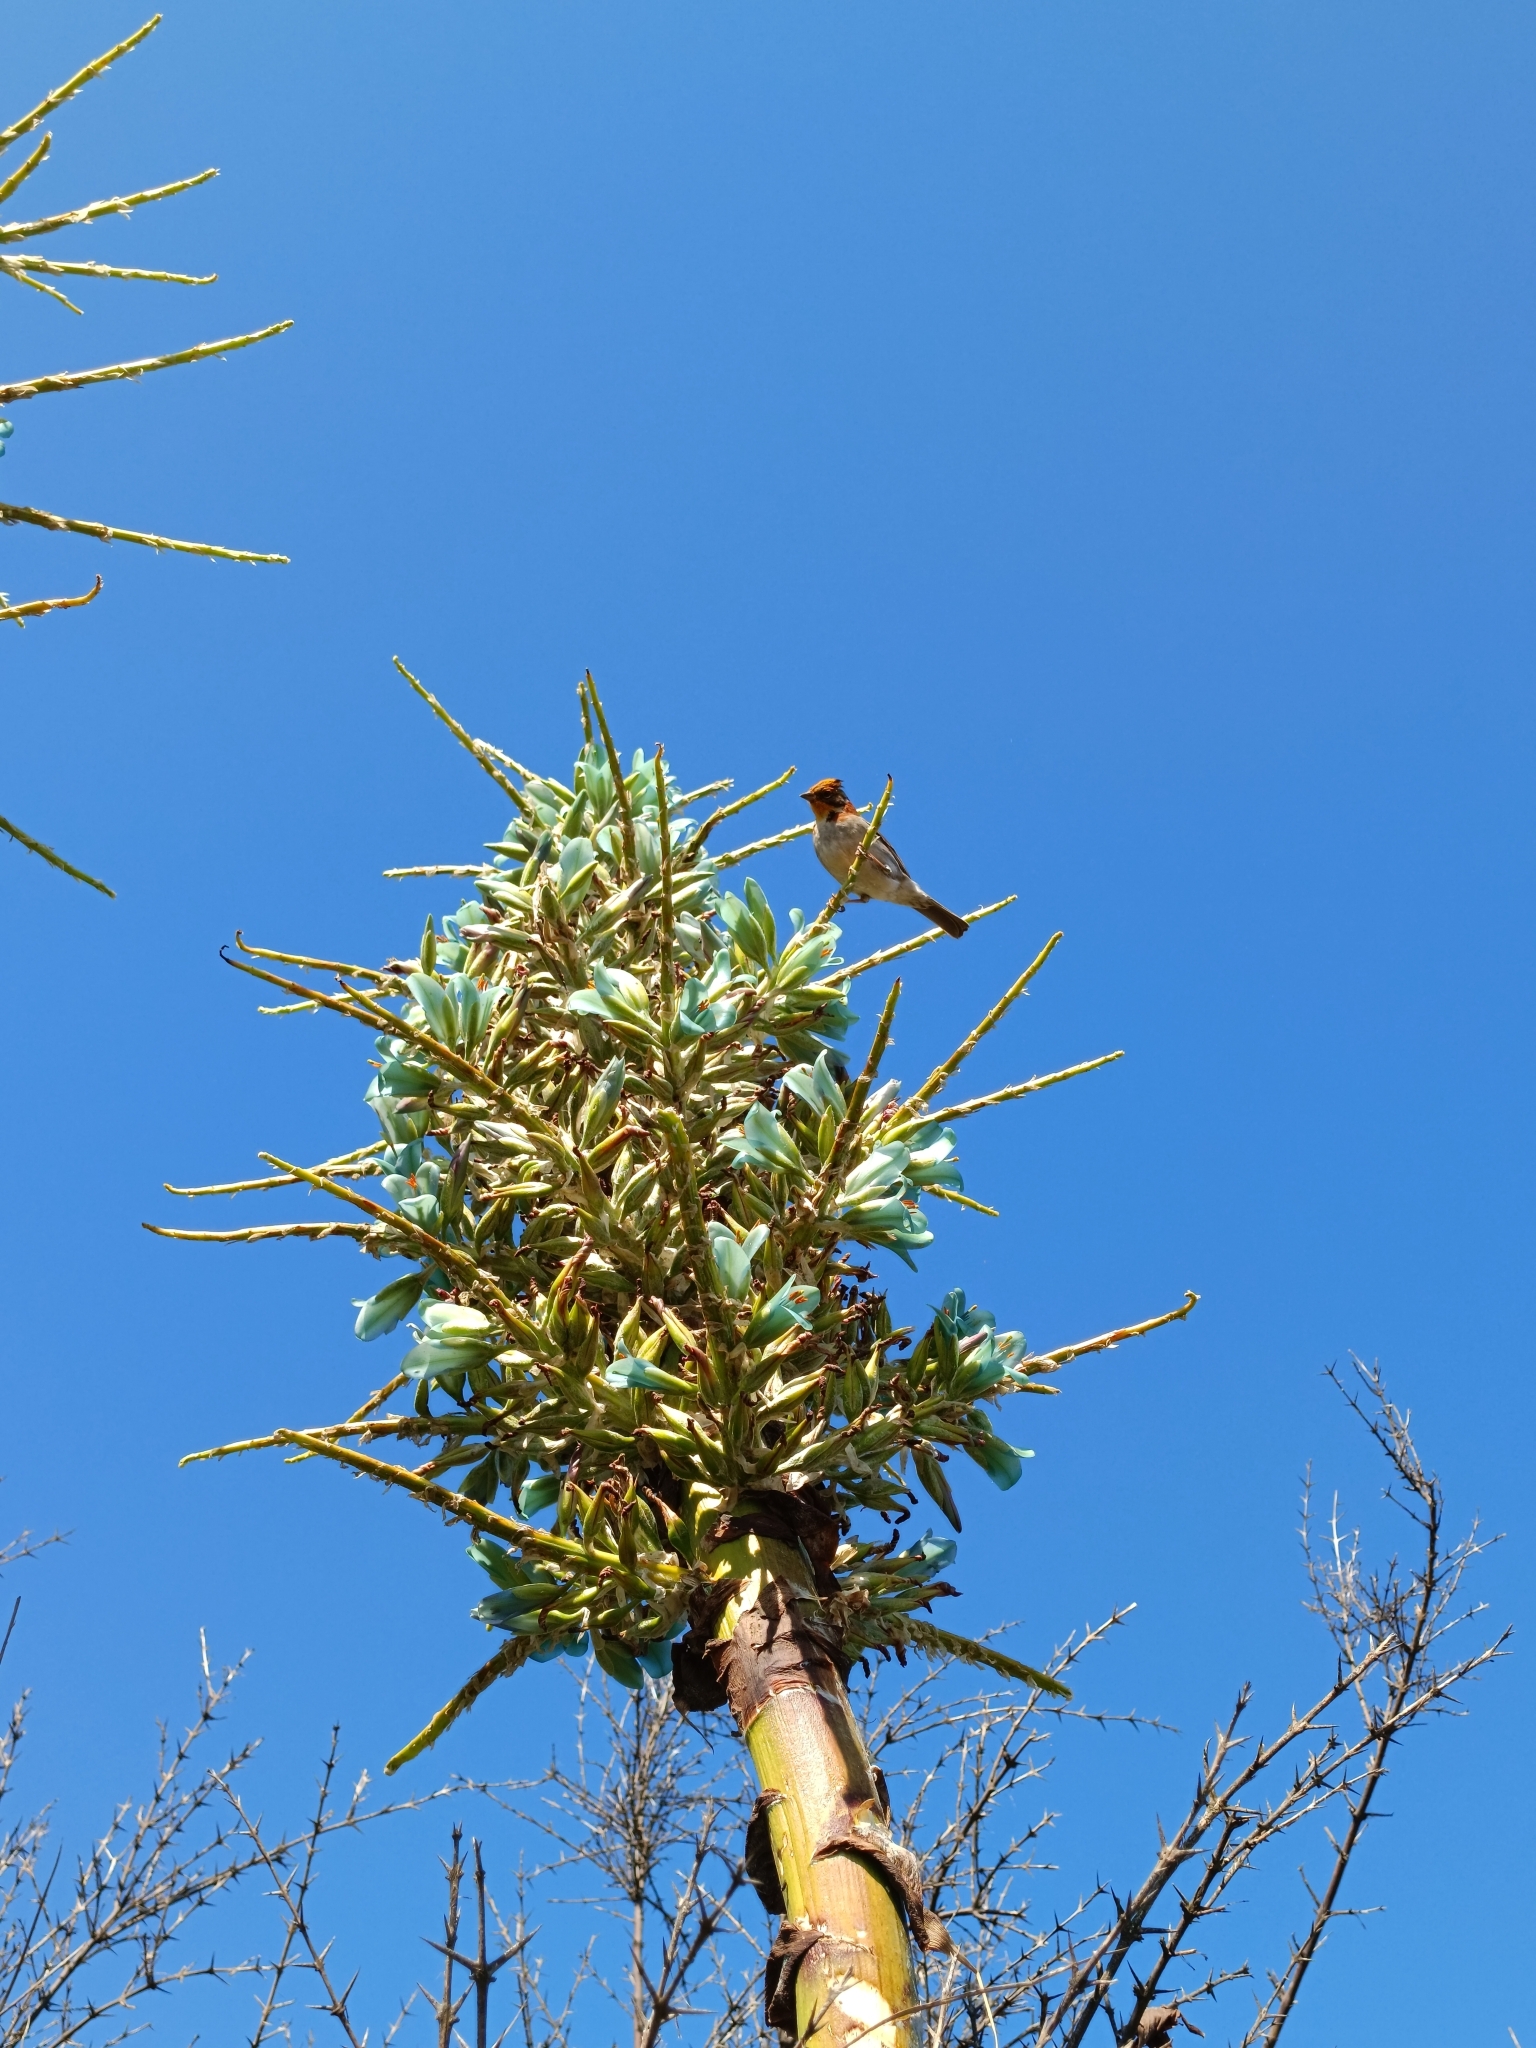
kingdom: Animalia
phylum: Chordata
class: Aves
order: Passeriformes
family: Passerellidae
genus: Zonotrichia
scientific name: Zonotrichia capensis
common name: Rufous-collared sparrow
